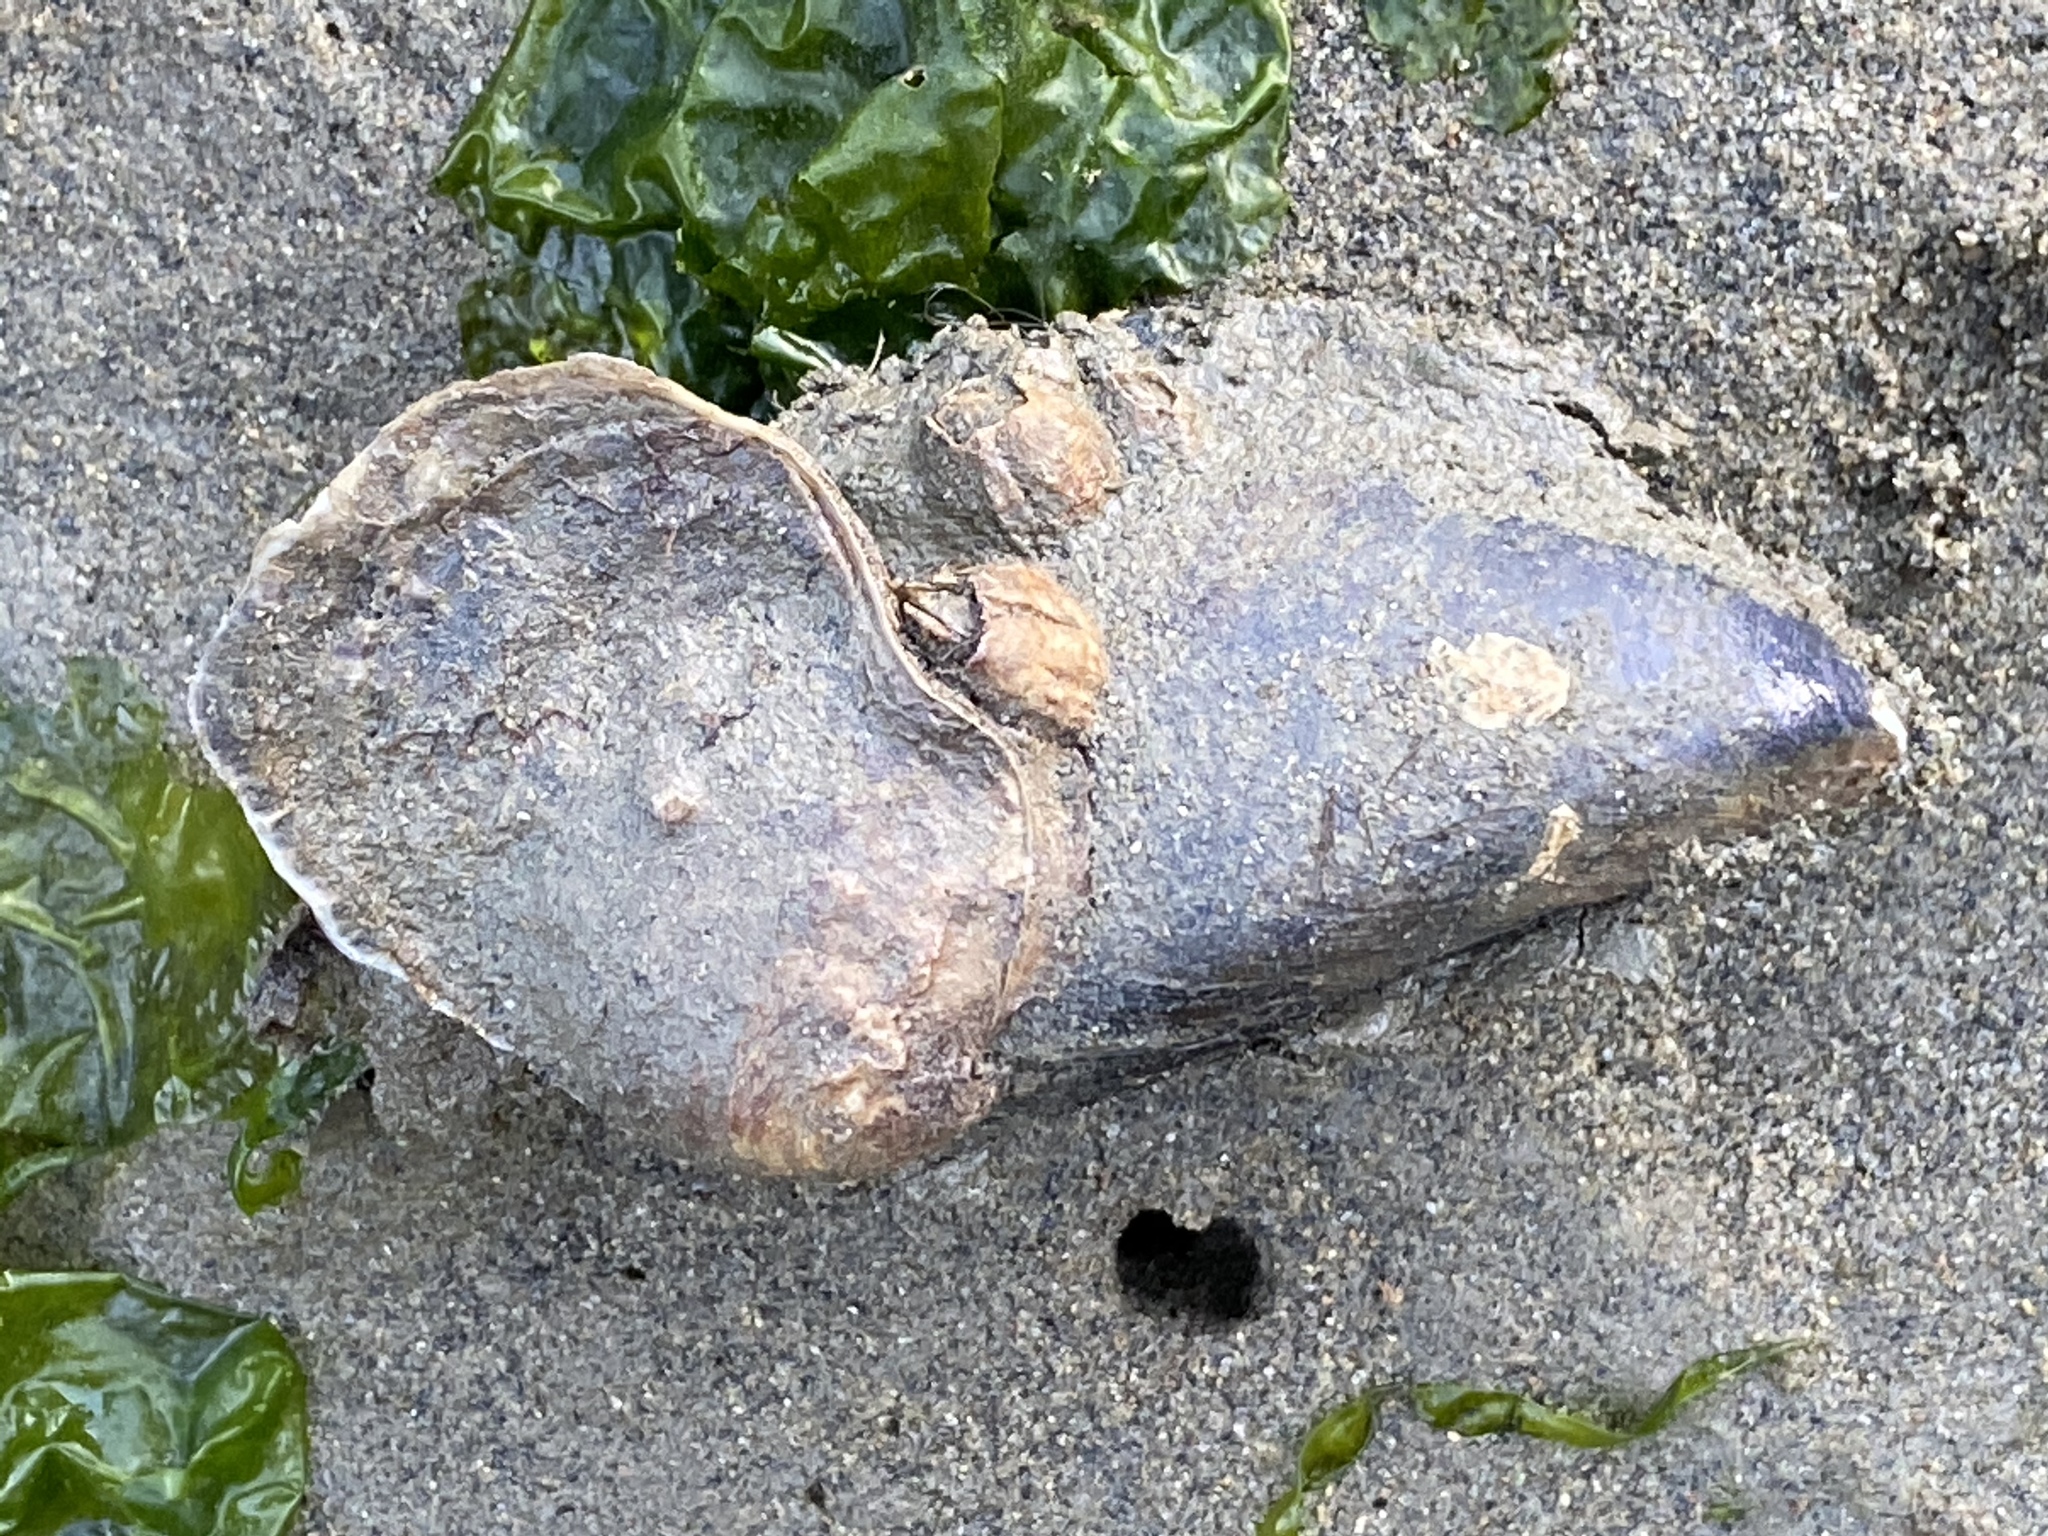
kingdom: Animalia
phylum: Mollusca
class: Bivalvia
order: Ostreida
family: Ostreidae
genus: Ostrea
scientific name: Ostrea lurida
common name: Olympia flat oyster
